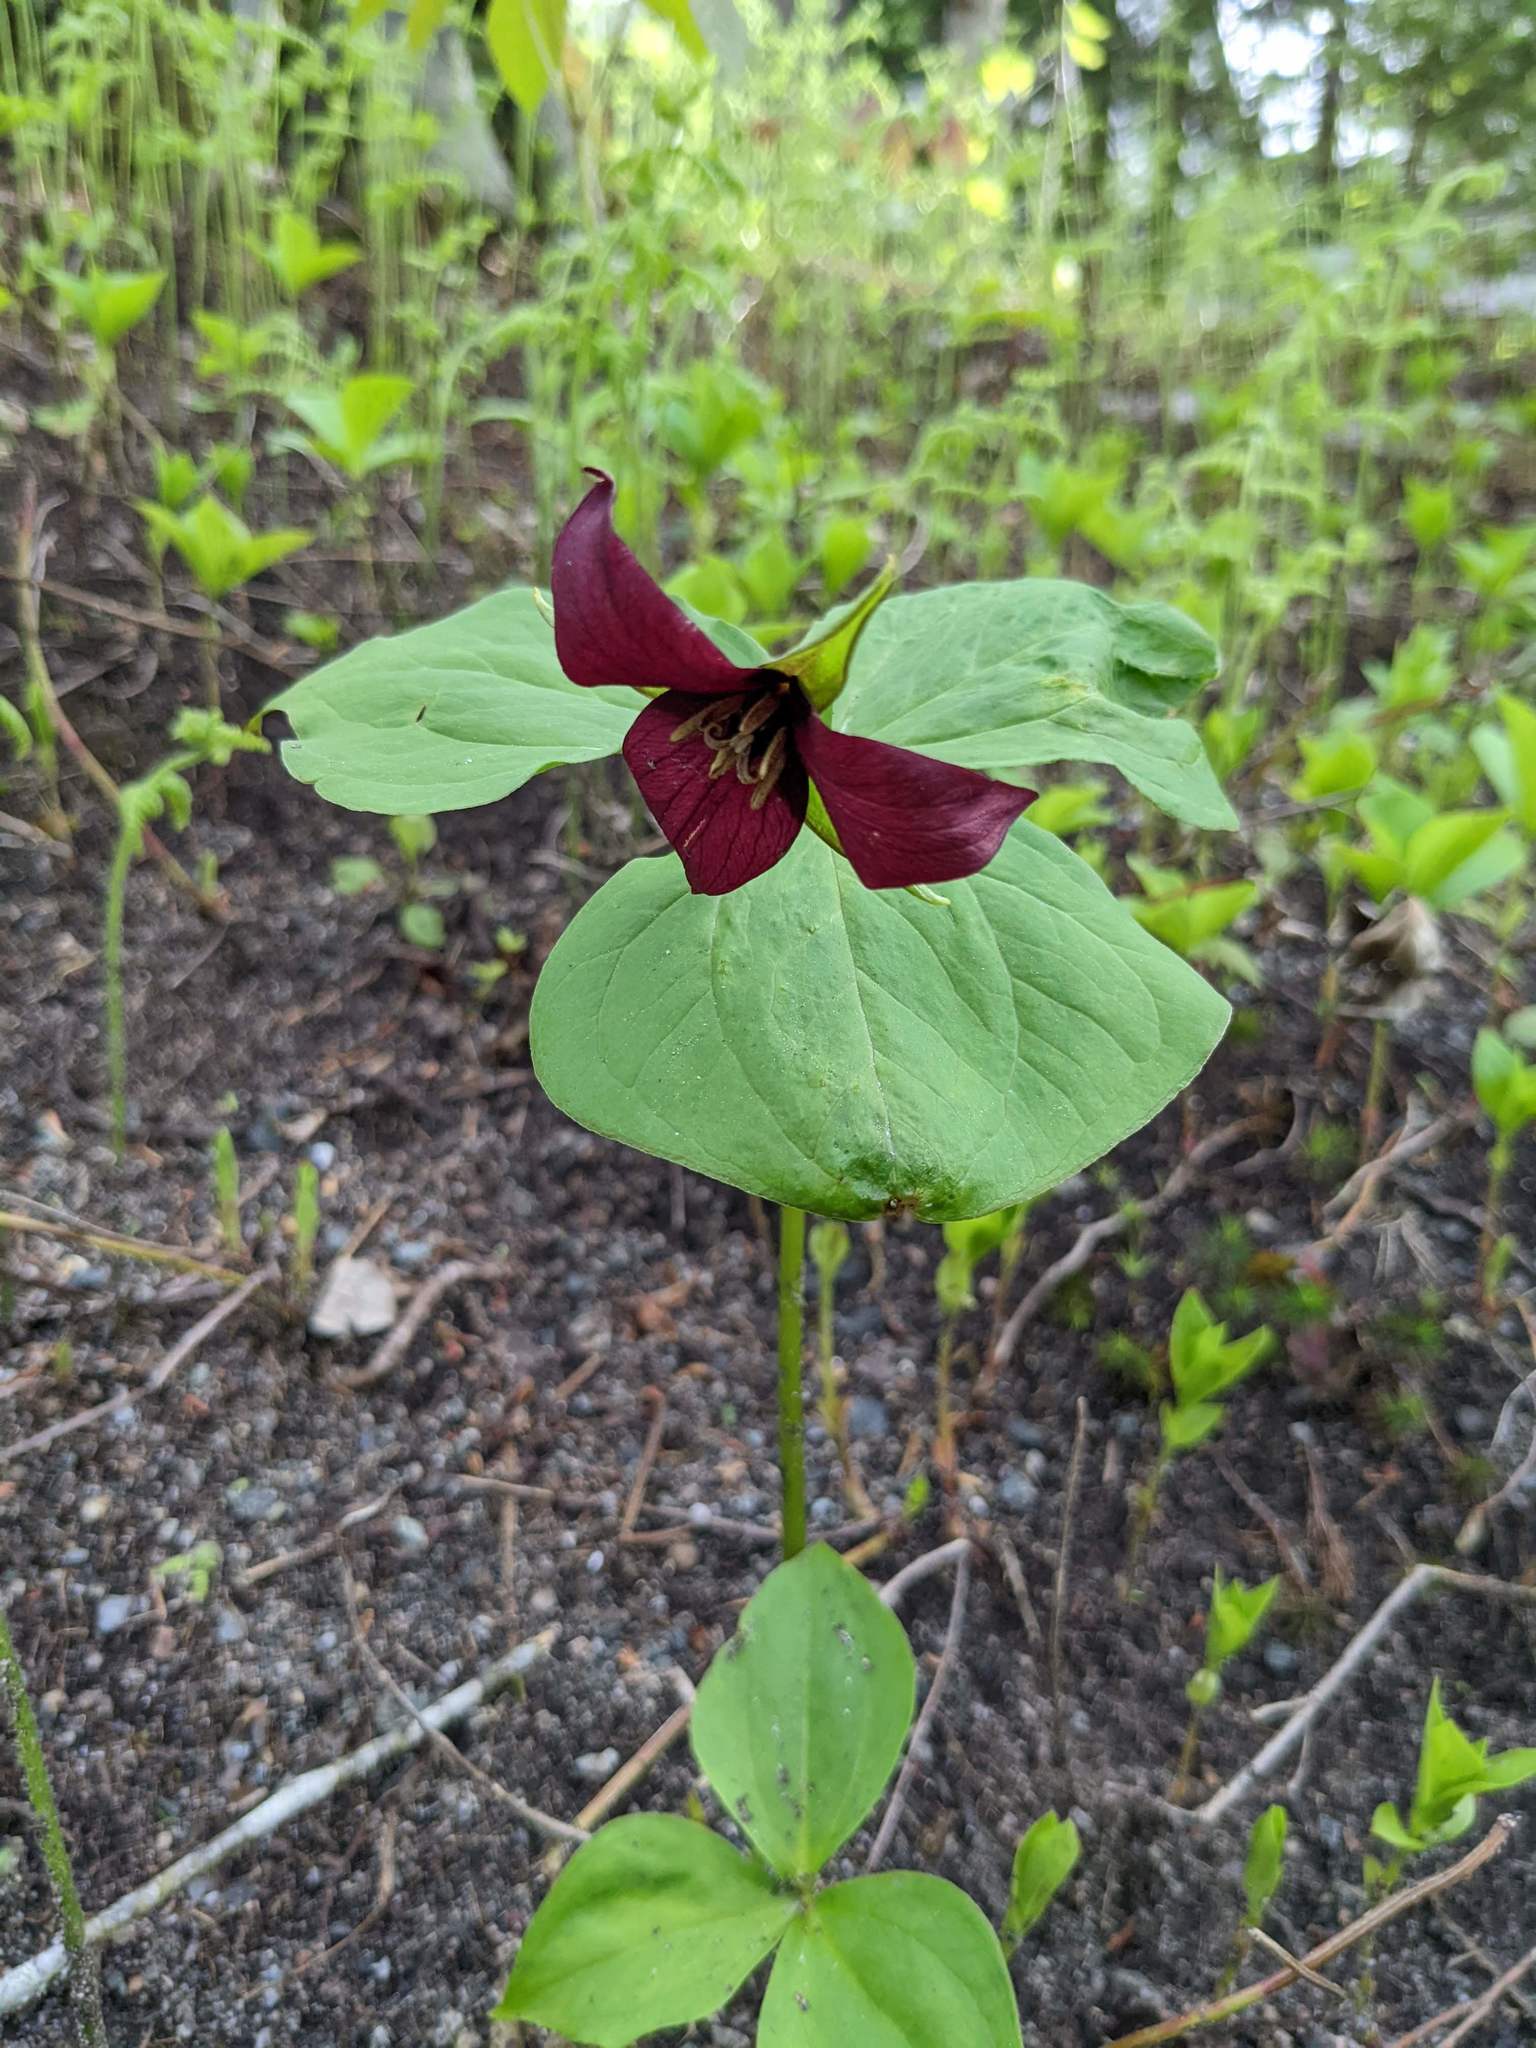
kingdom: Plantae
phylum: Tracheophyta
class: Liliopsida
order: Liliales
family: Melanthiaceae
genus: Trillium
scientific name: Trillium erectum
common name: Purple trillium
